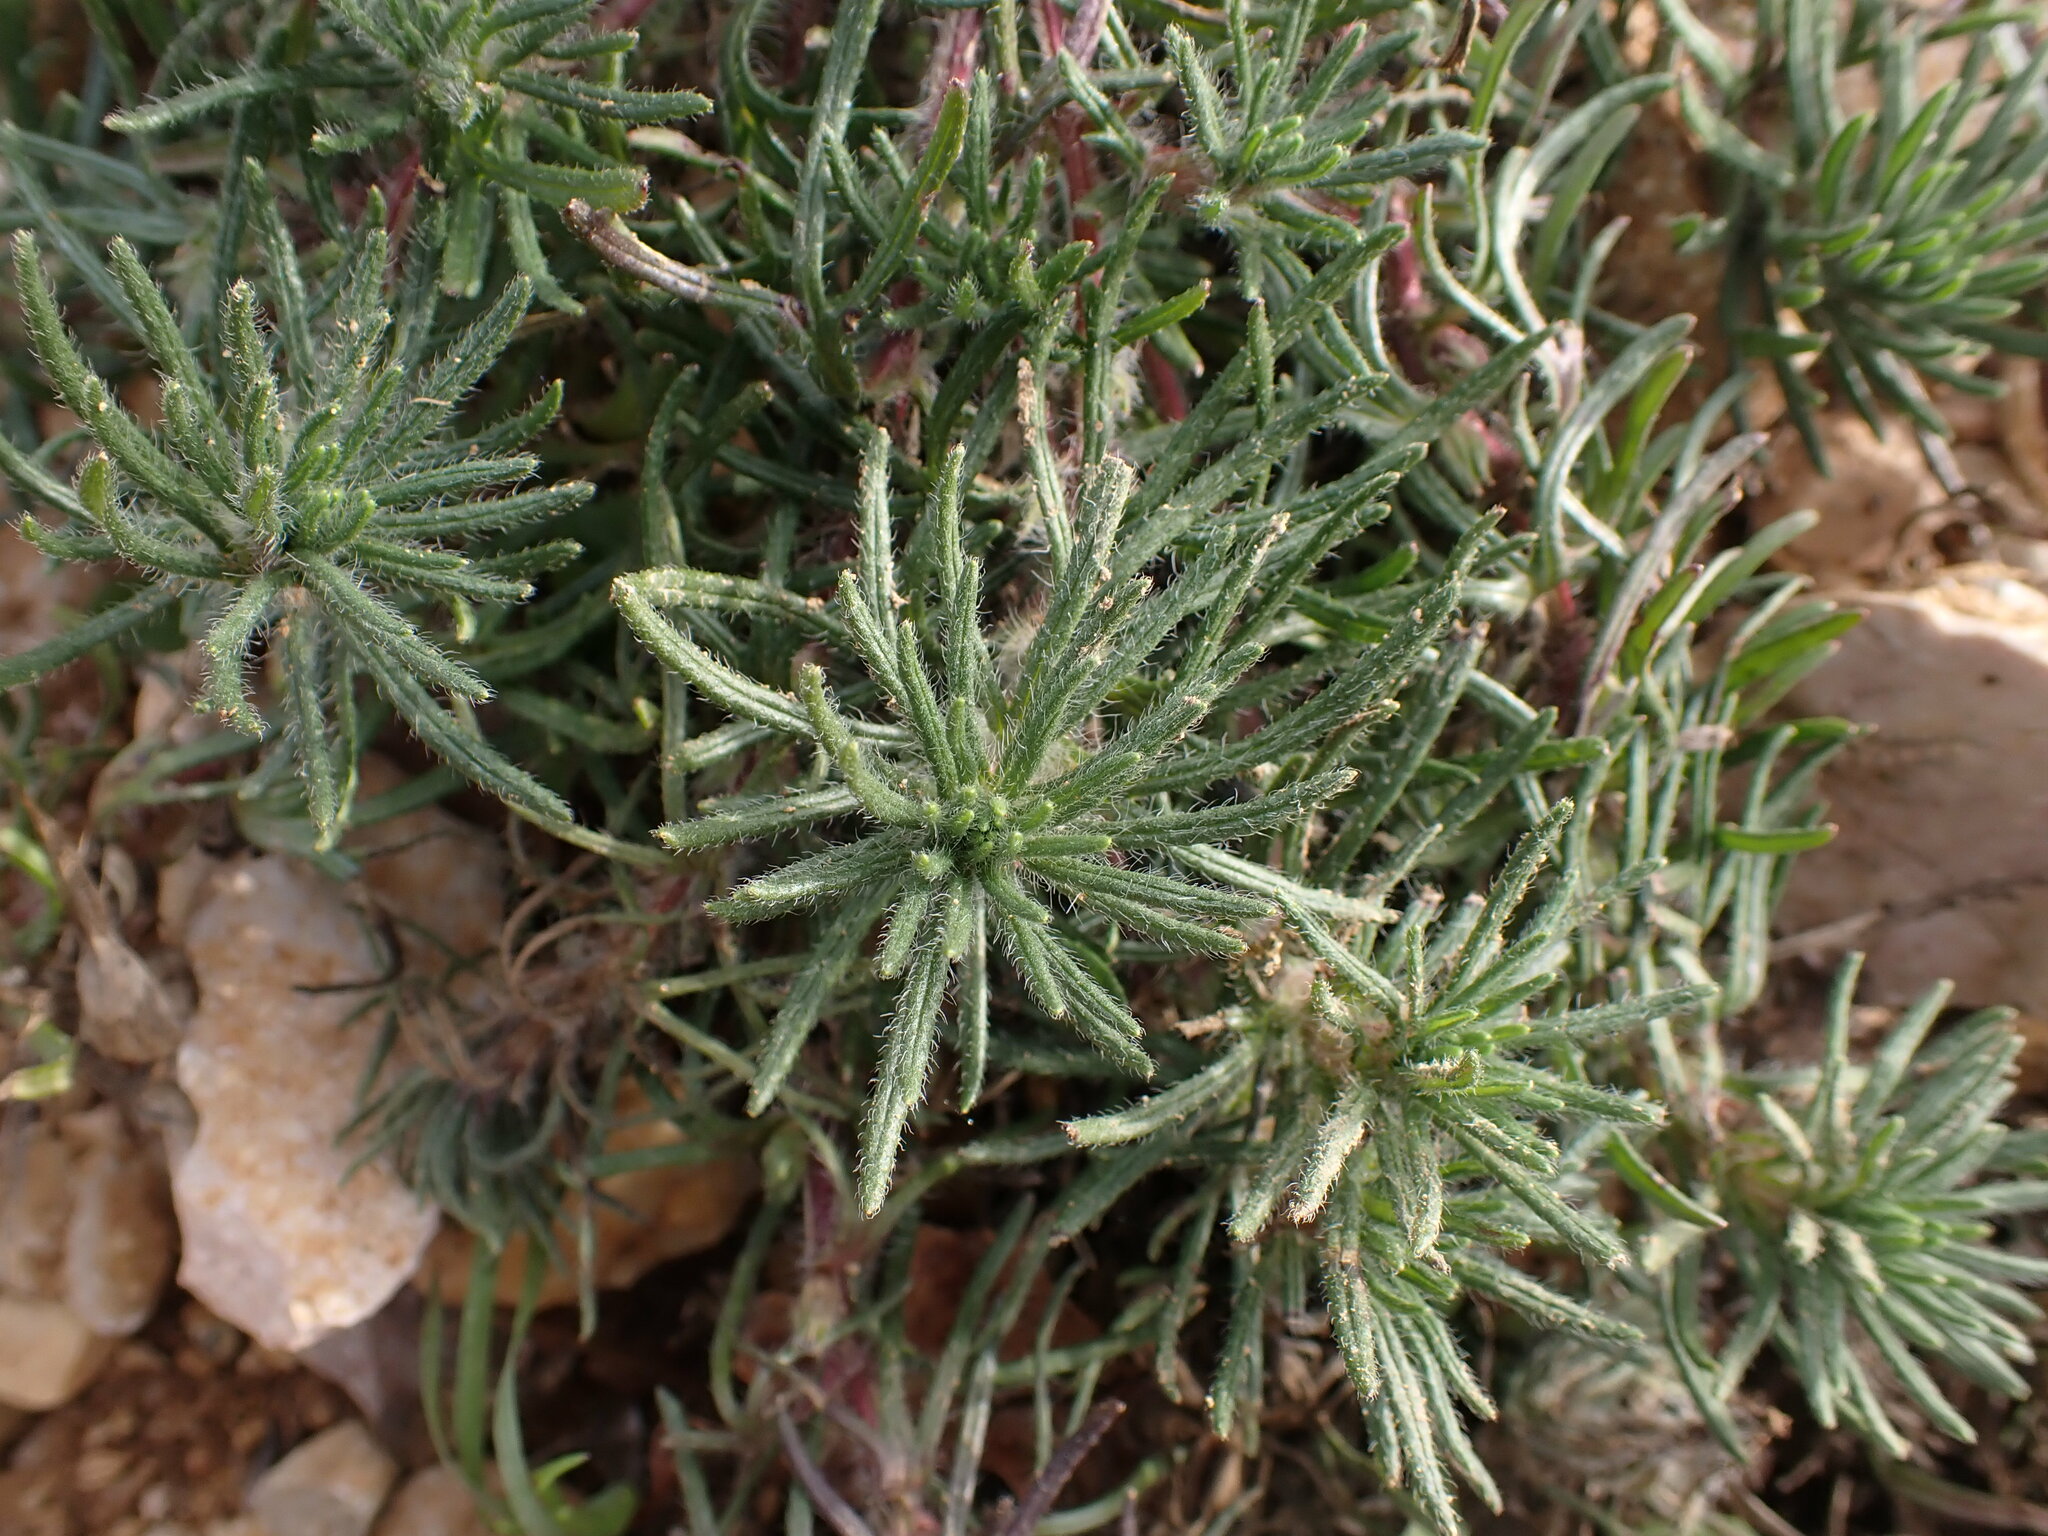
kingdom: Plantae
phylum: Tracheophyta
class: Magnoliopsida
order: Lamiales
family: Lamiaceae
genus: Ajuga
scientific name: Ajuga chamaepitys
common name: Ground-pine
